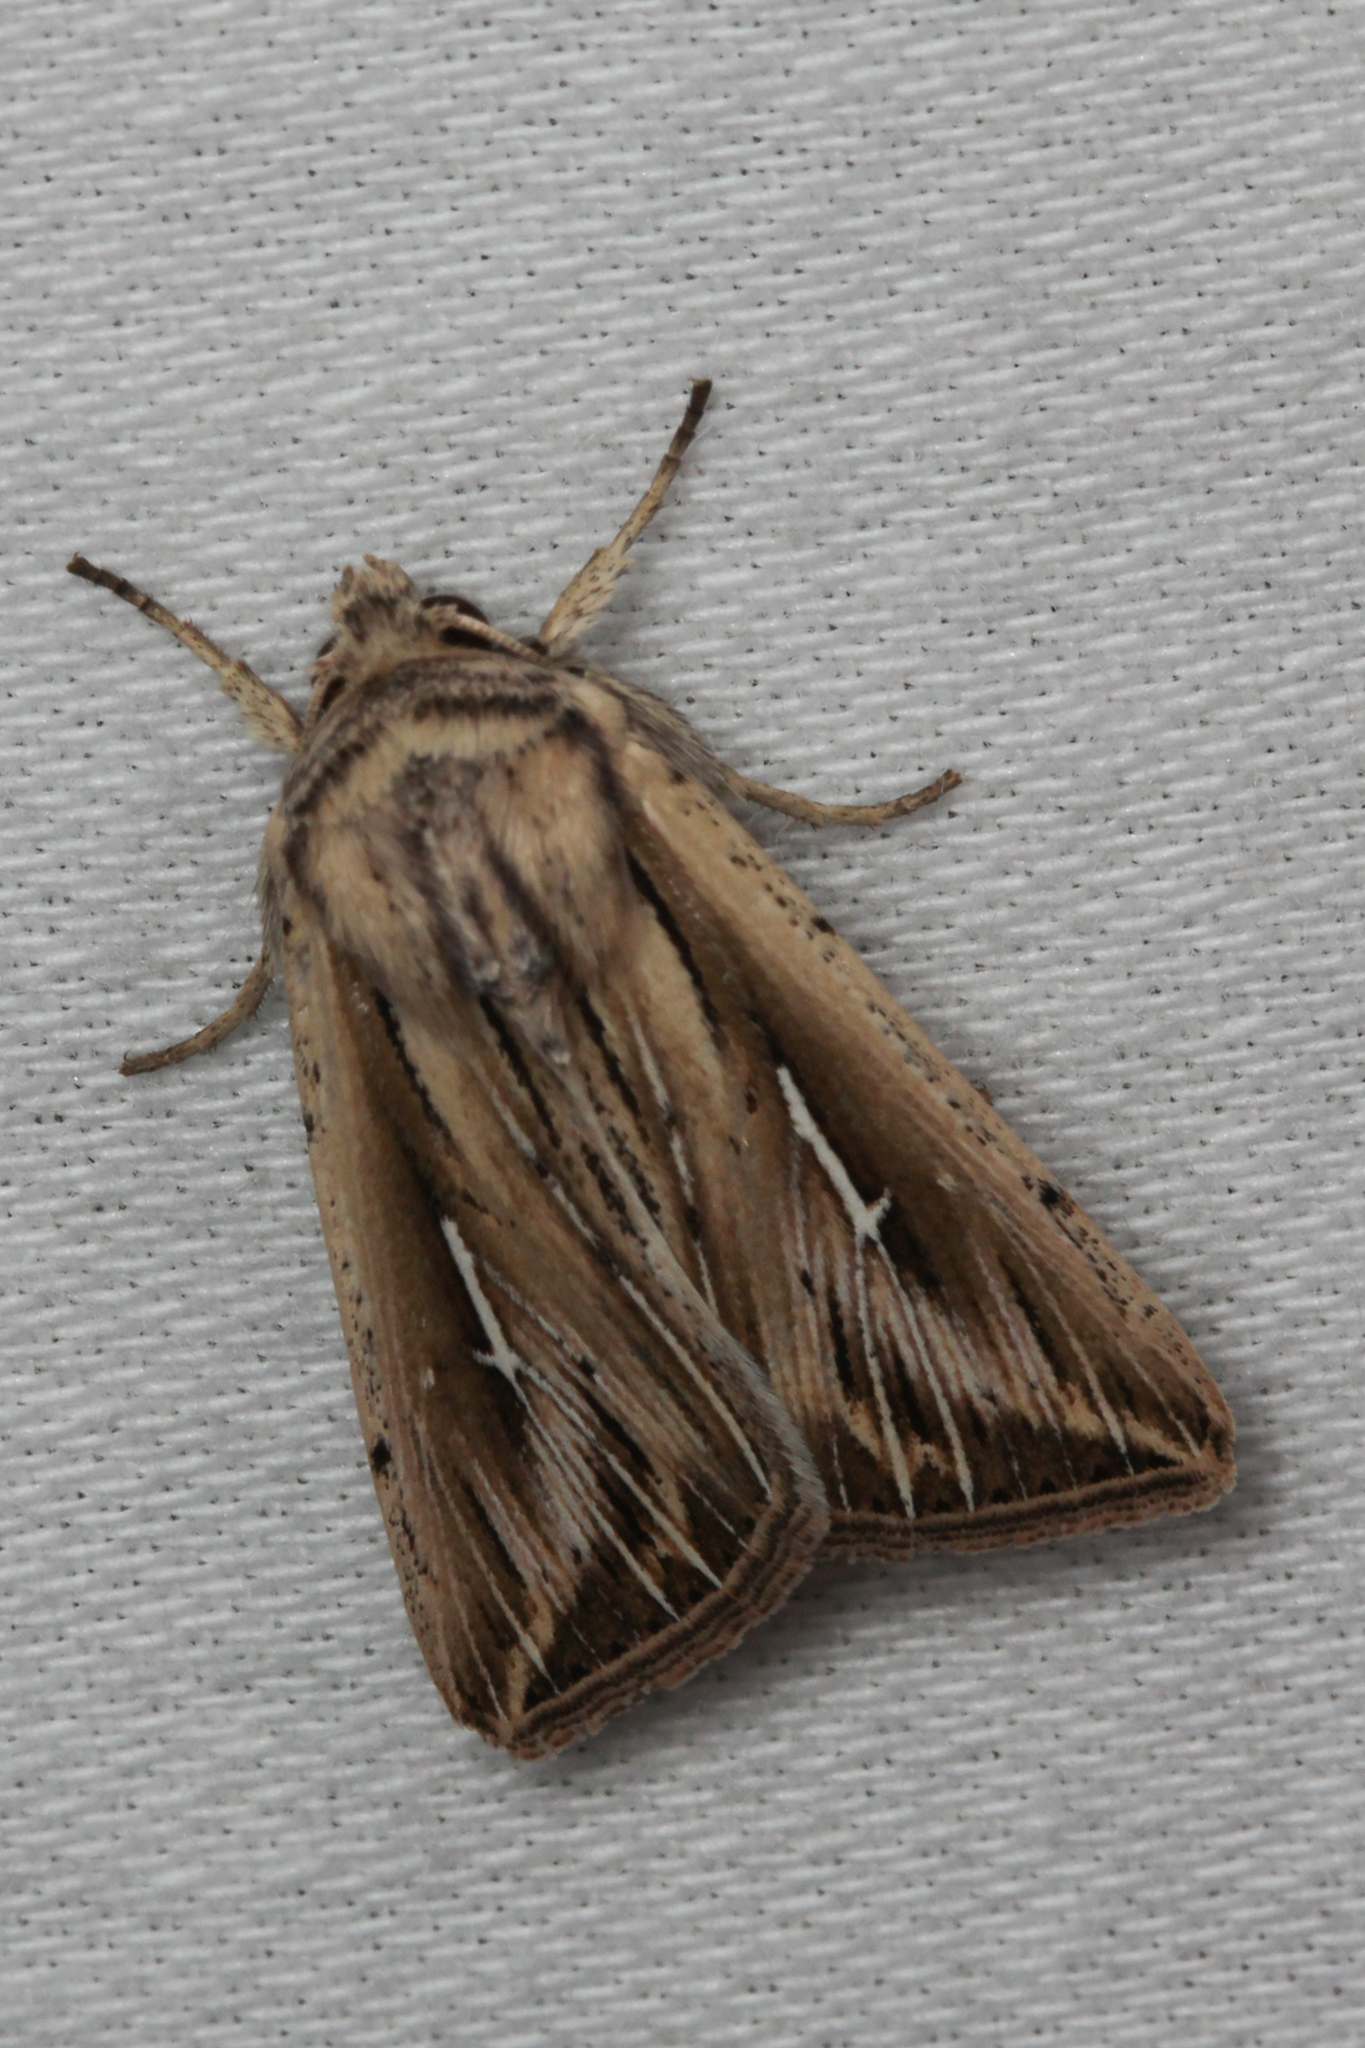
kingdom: Animalia
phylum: Arthropoda
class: Insecta
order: Lepidoptera
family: Noctuidae
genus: Mythimna
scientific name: Mythimna l-album
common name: L-album wainscot
